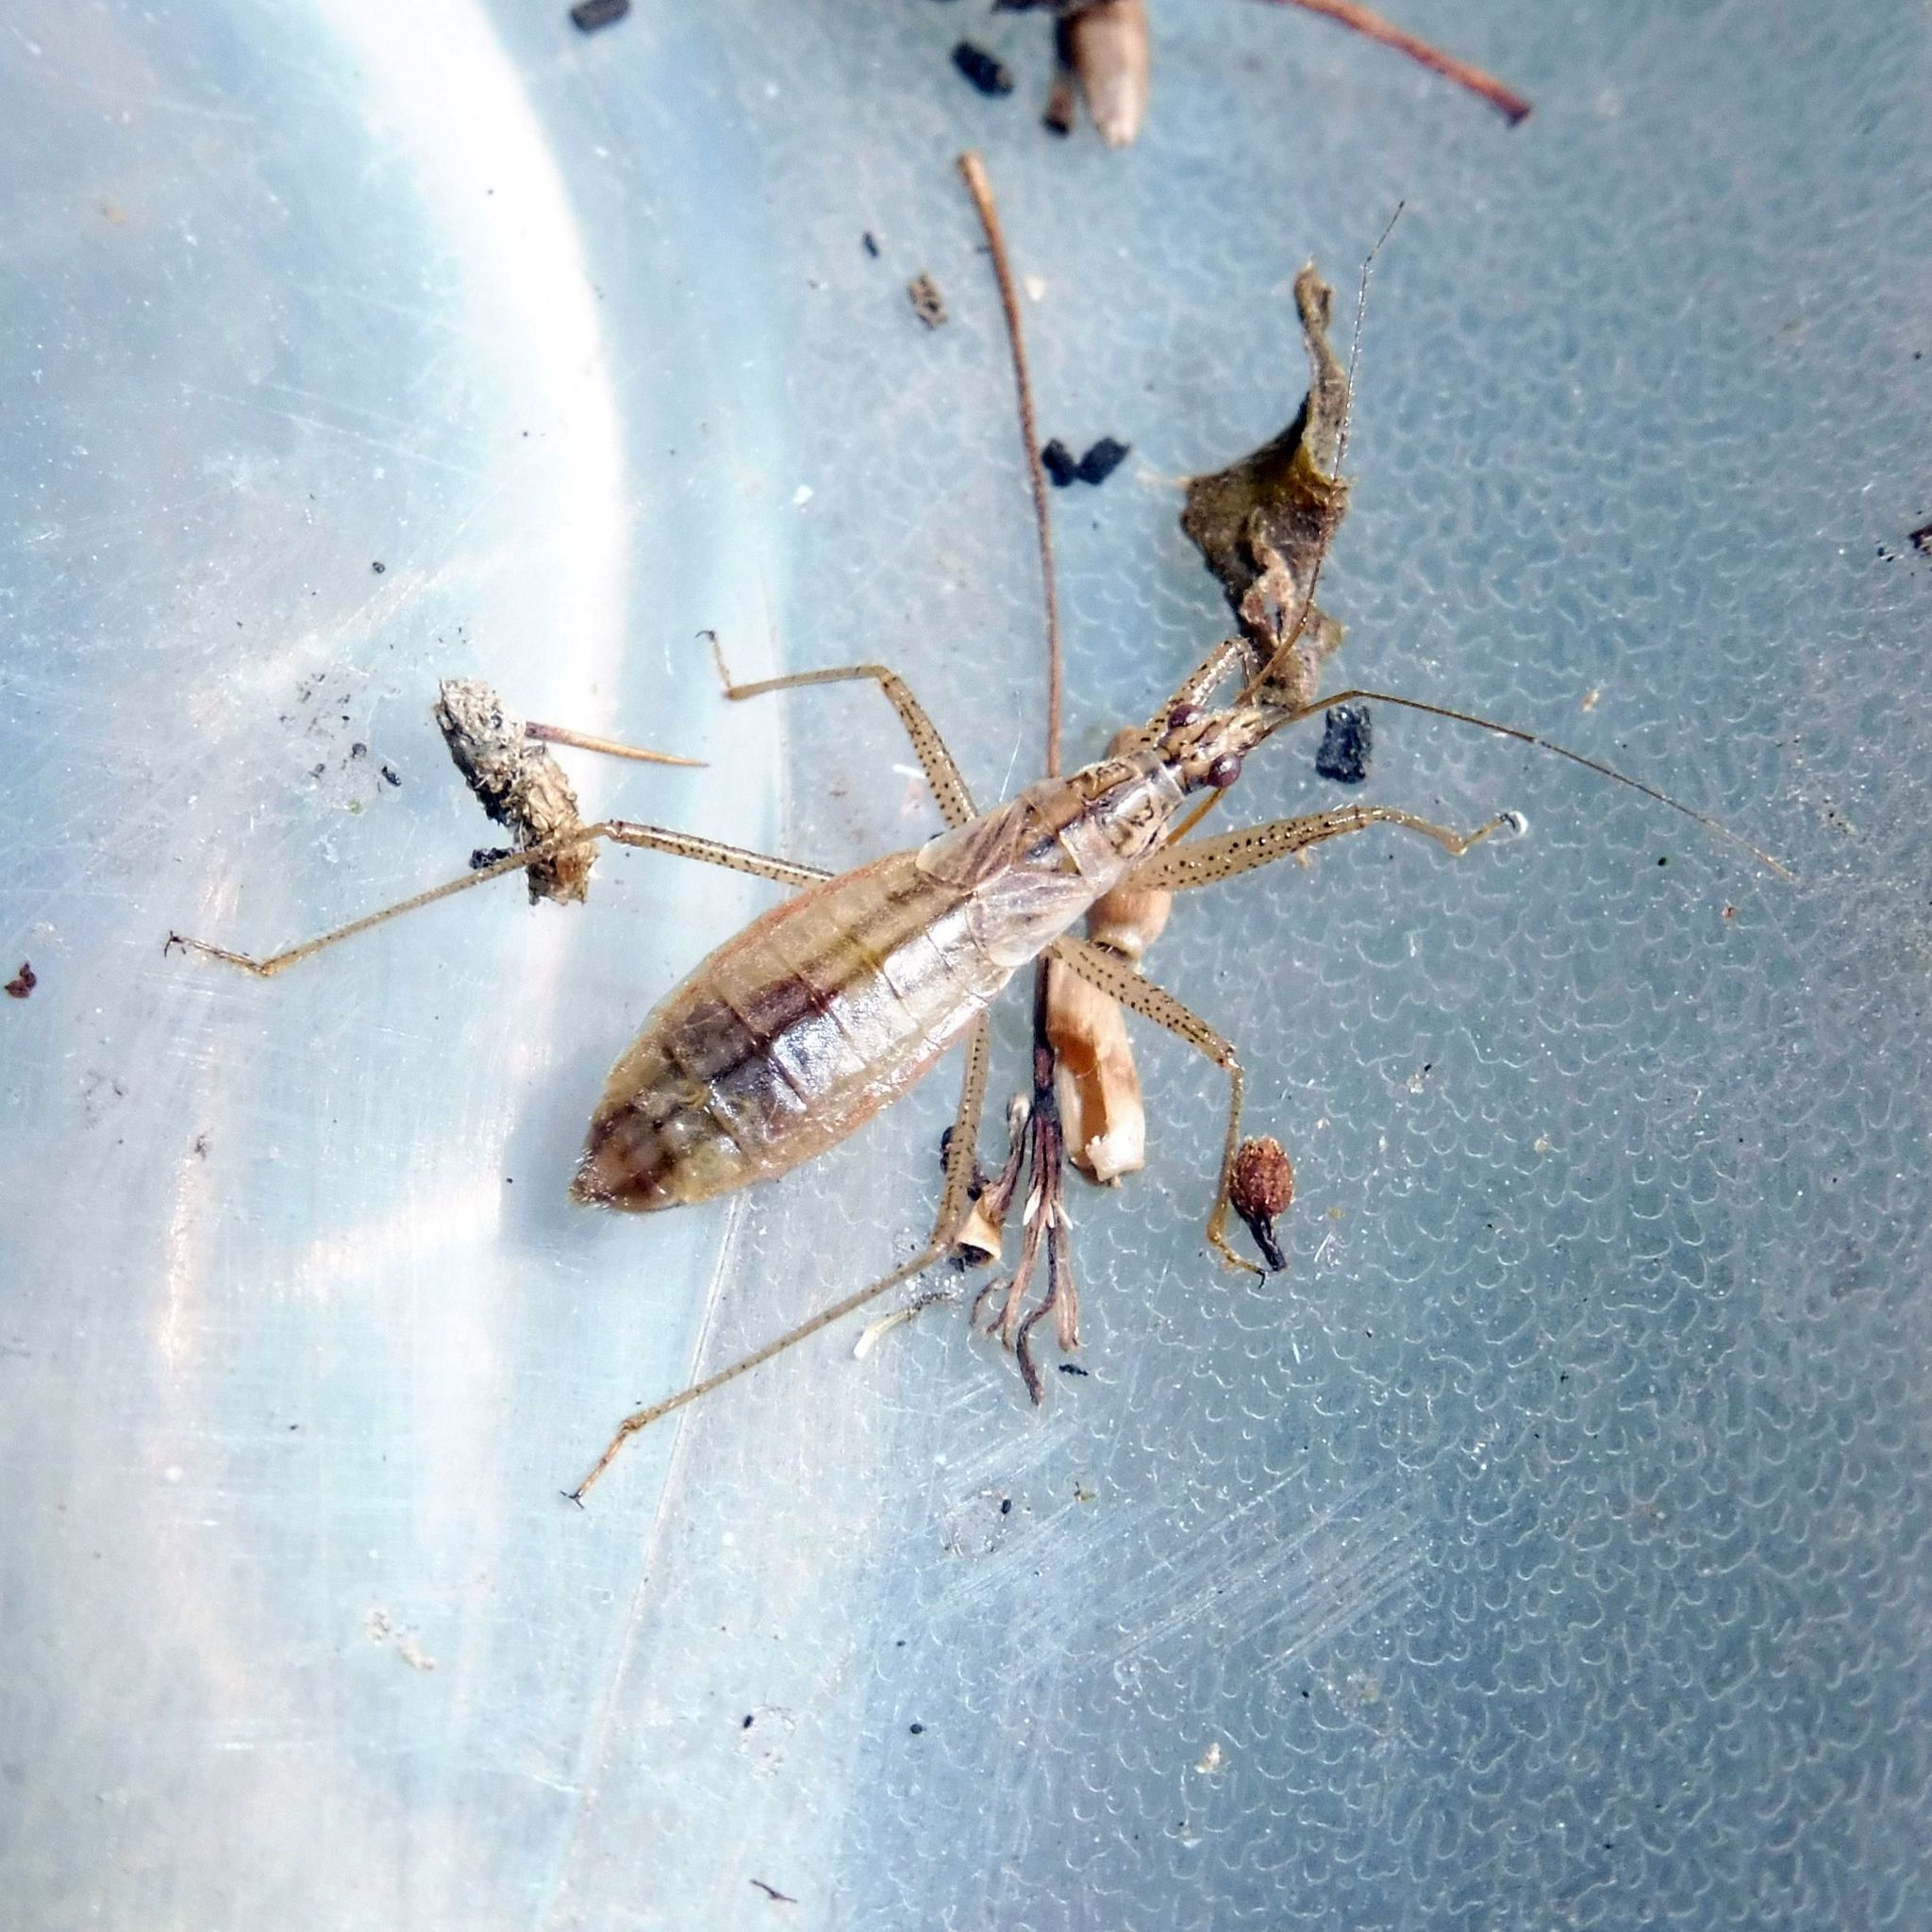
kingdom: Animalia
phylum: Arthropoda
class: Insecta
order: Hemiptera
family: Nabidae
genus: Nabis
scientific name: Nabis limbatus
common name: Marsh damselbug
